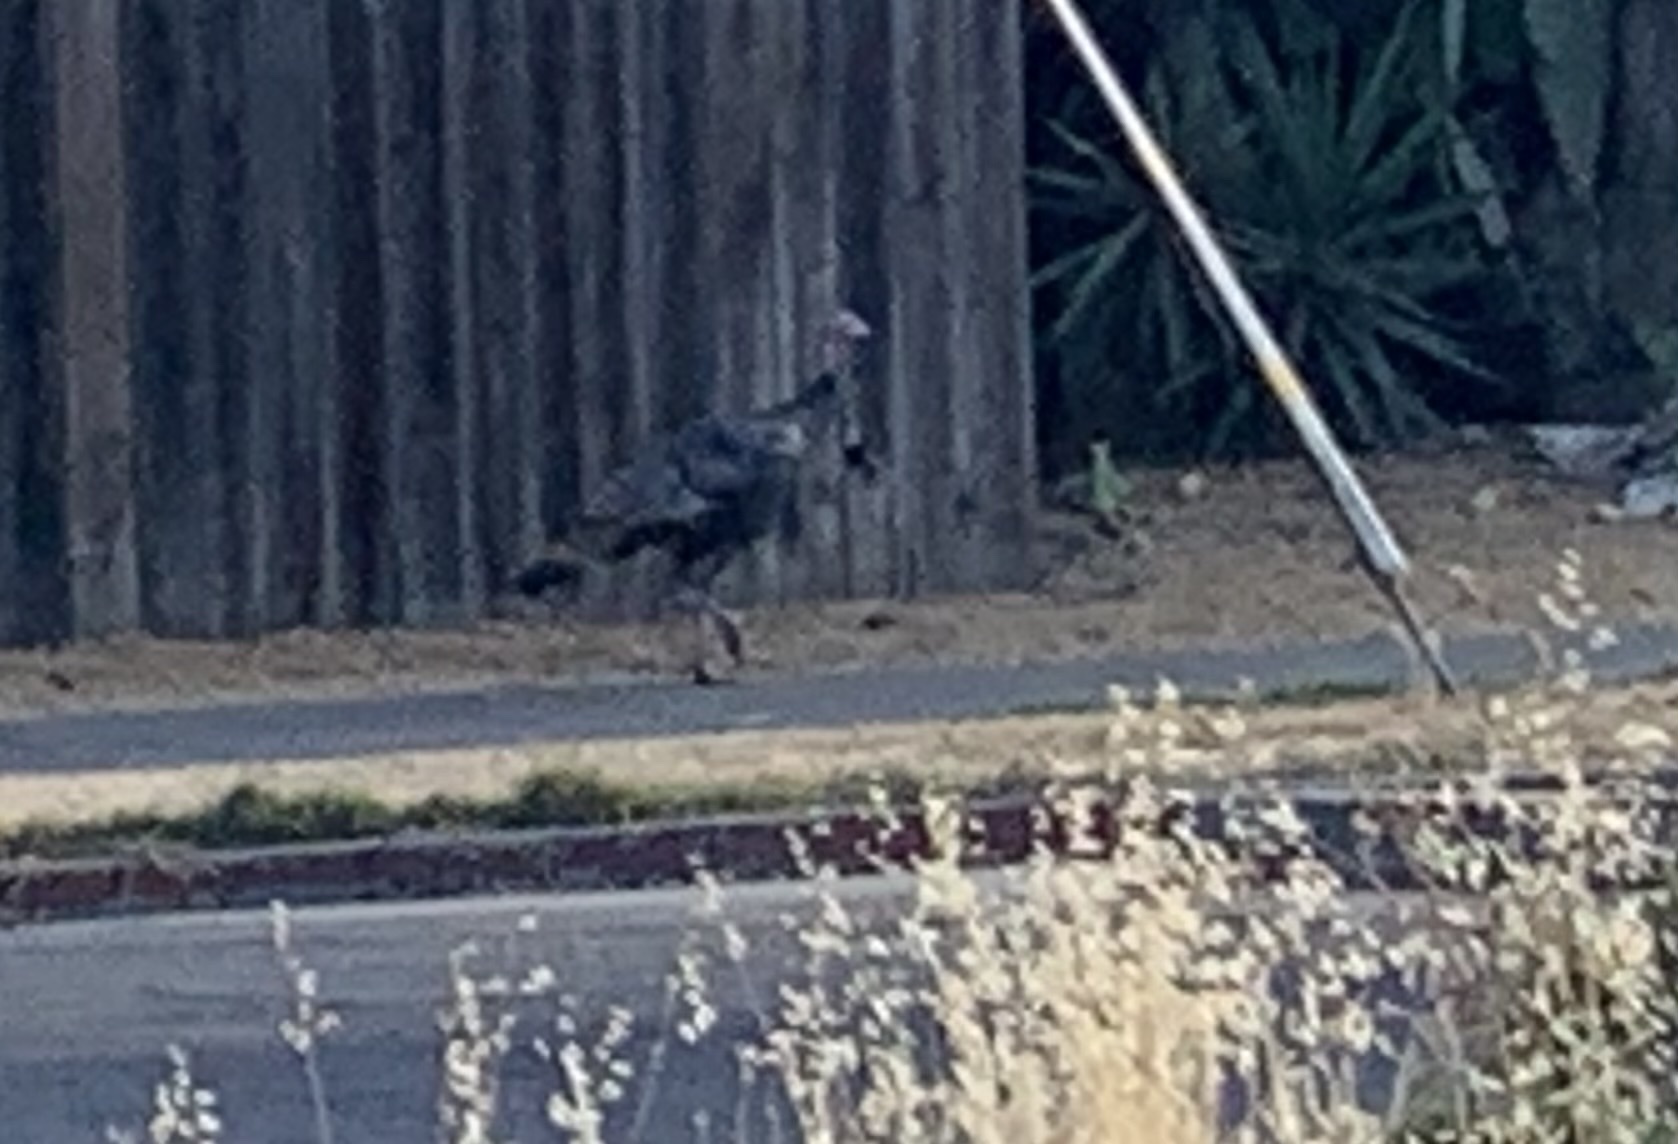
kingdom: Animalia
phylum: Chordata
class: Aves
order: Galliformes
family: Phasianidae
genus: Meleagris
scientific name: Meleagris gallopavo
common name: Wild turkey
